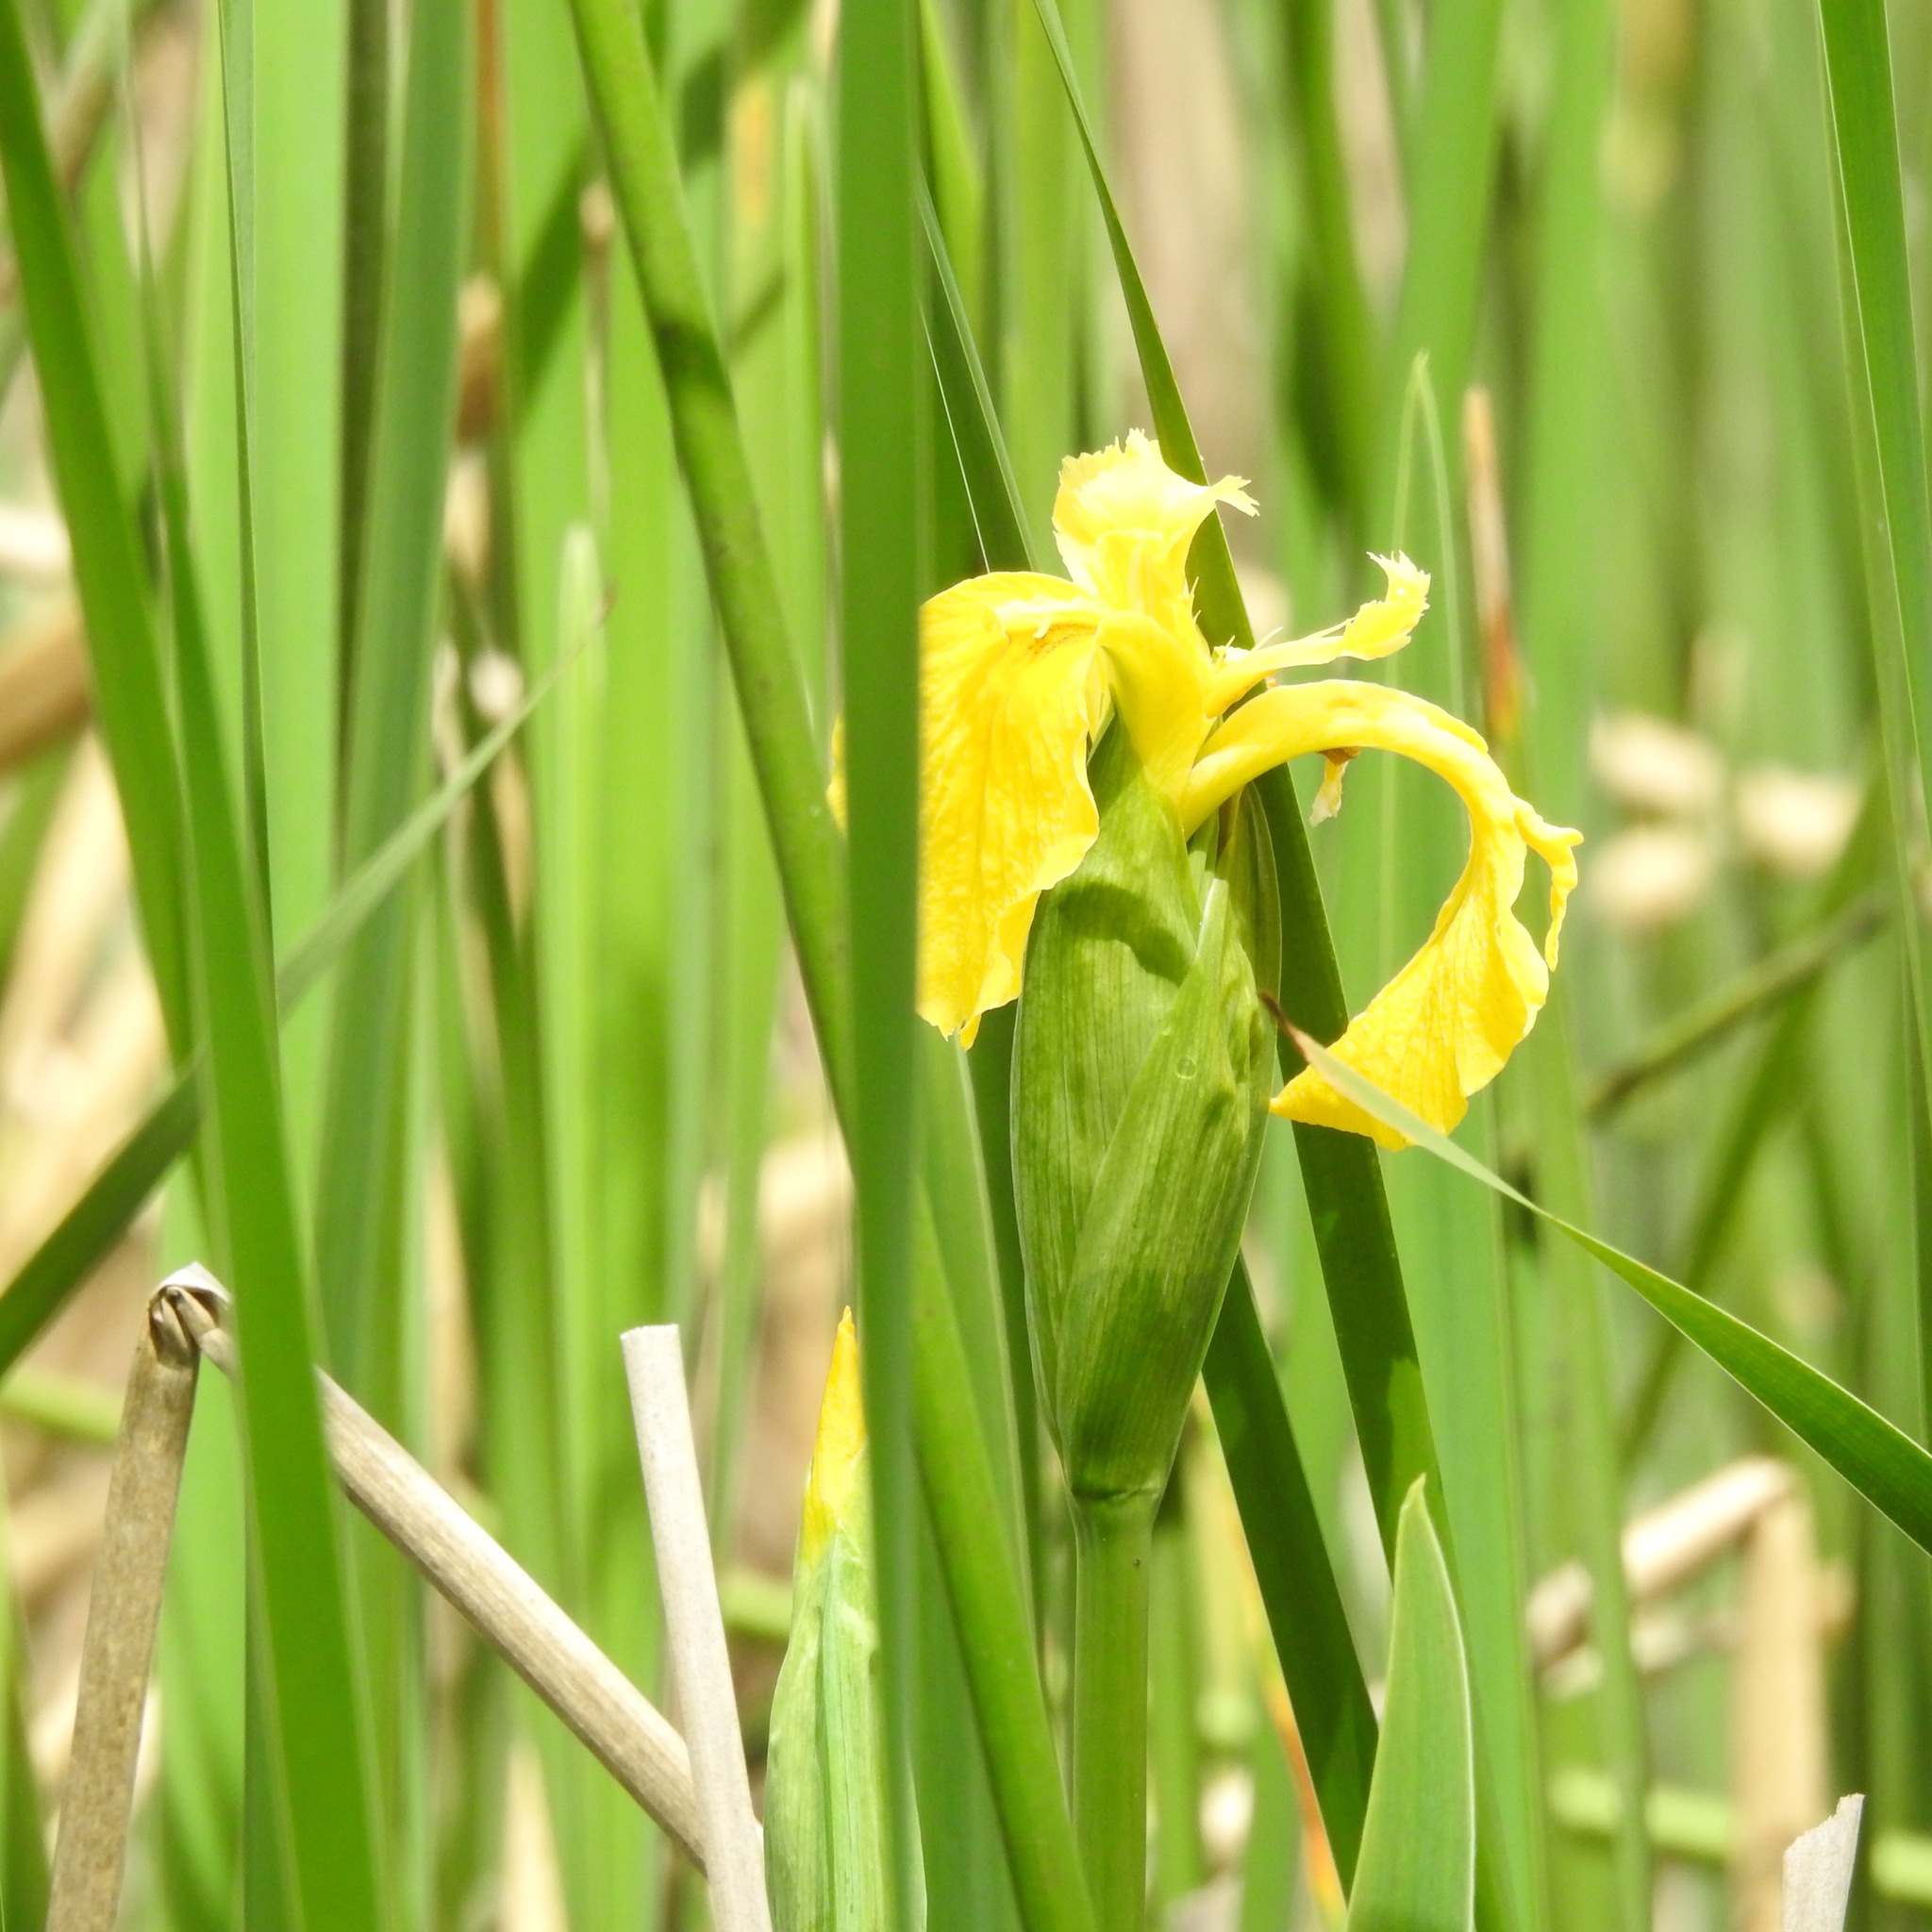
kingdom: Plantae
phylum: Tracheophyta
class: Liliopsida
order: Asparagales
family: Iridaceae
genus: Iris
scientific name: Iris pseudacorus
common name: Yellow flag
